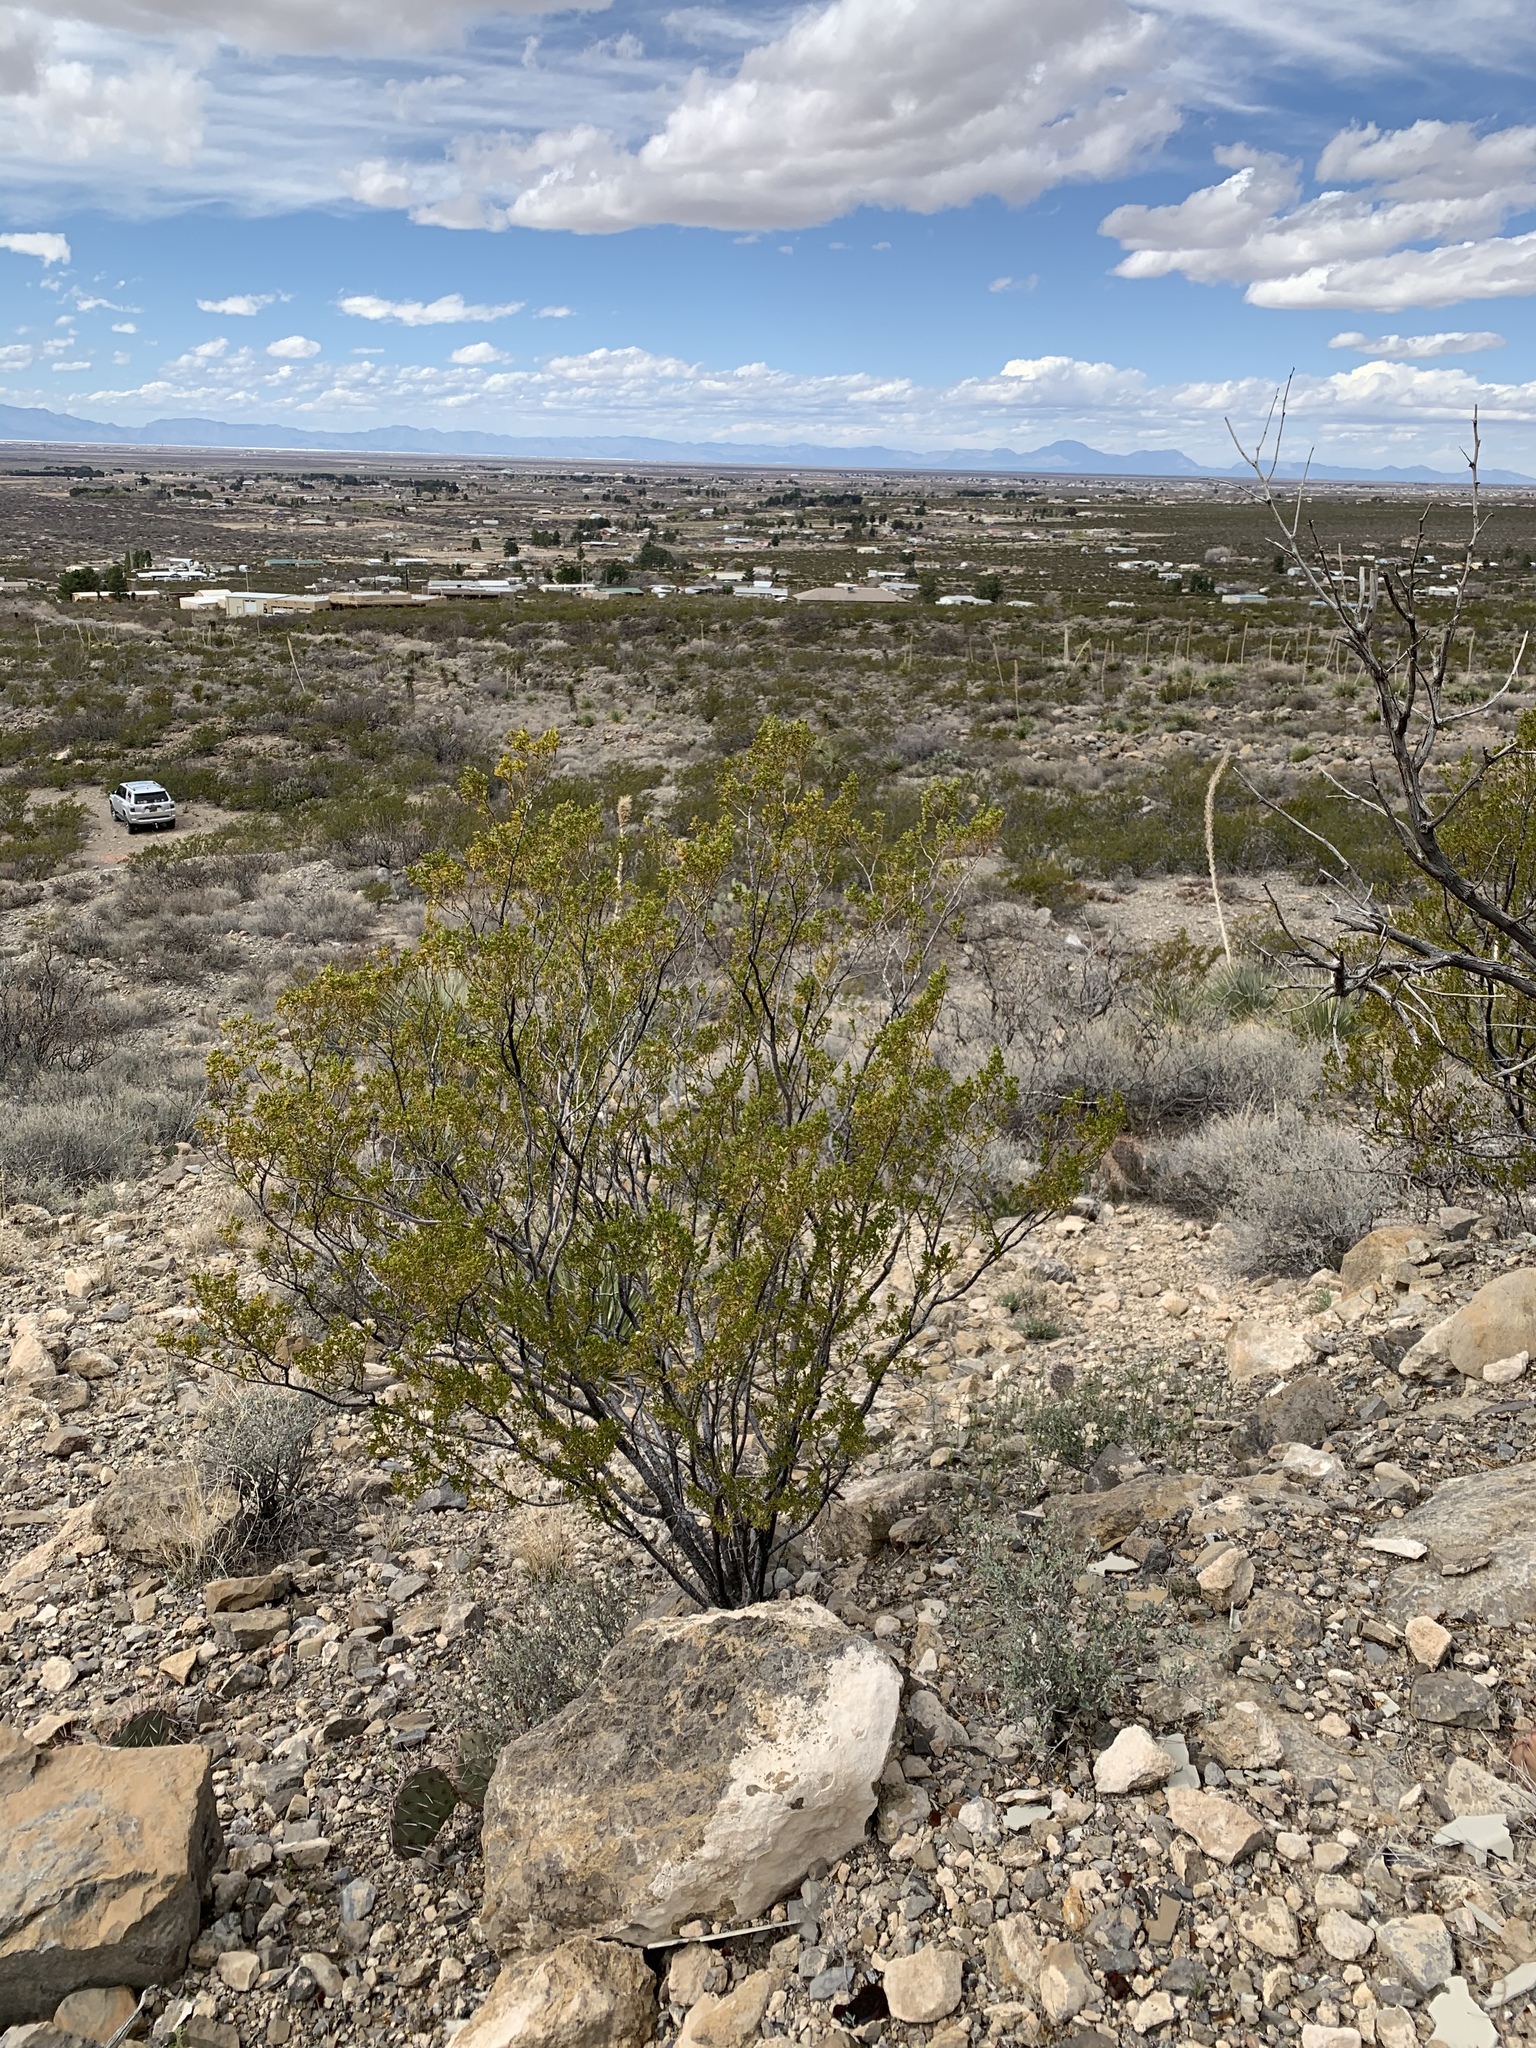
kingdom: Plantae
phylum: Tracheophyta
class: Magnoliopsida
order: Zygophyllales
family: Zygophyllaceae
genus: Larrea
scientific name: Larrea tridentata
